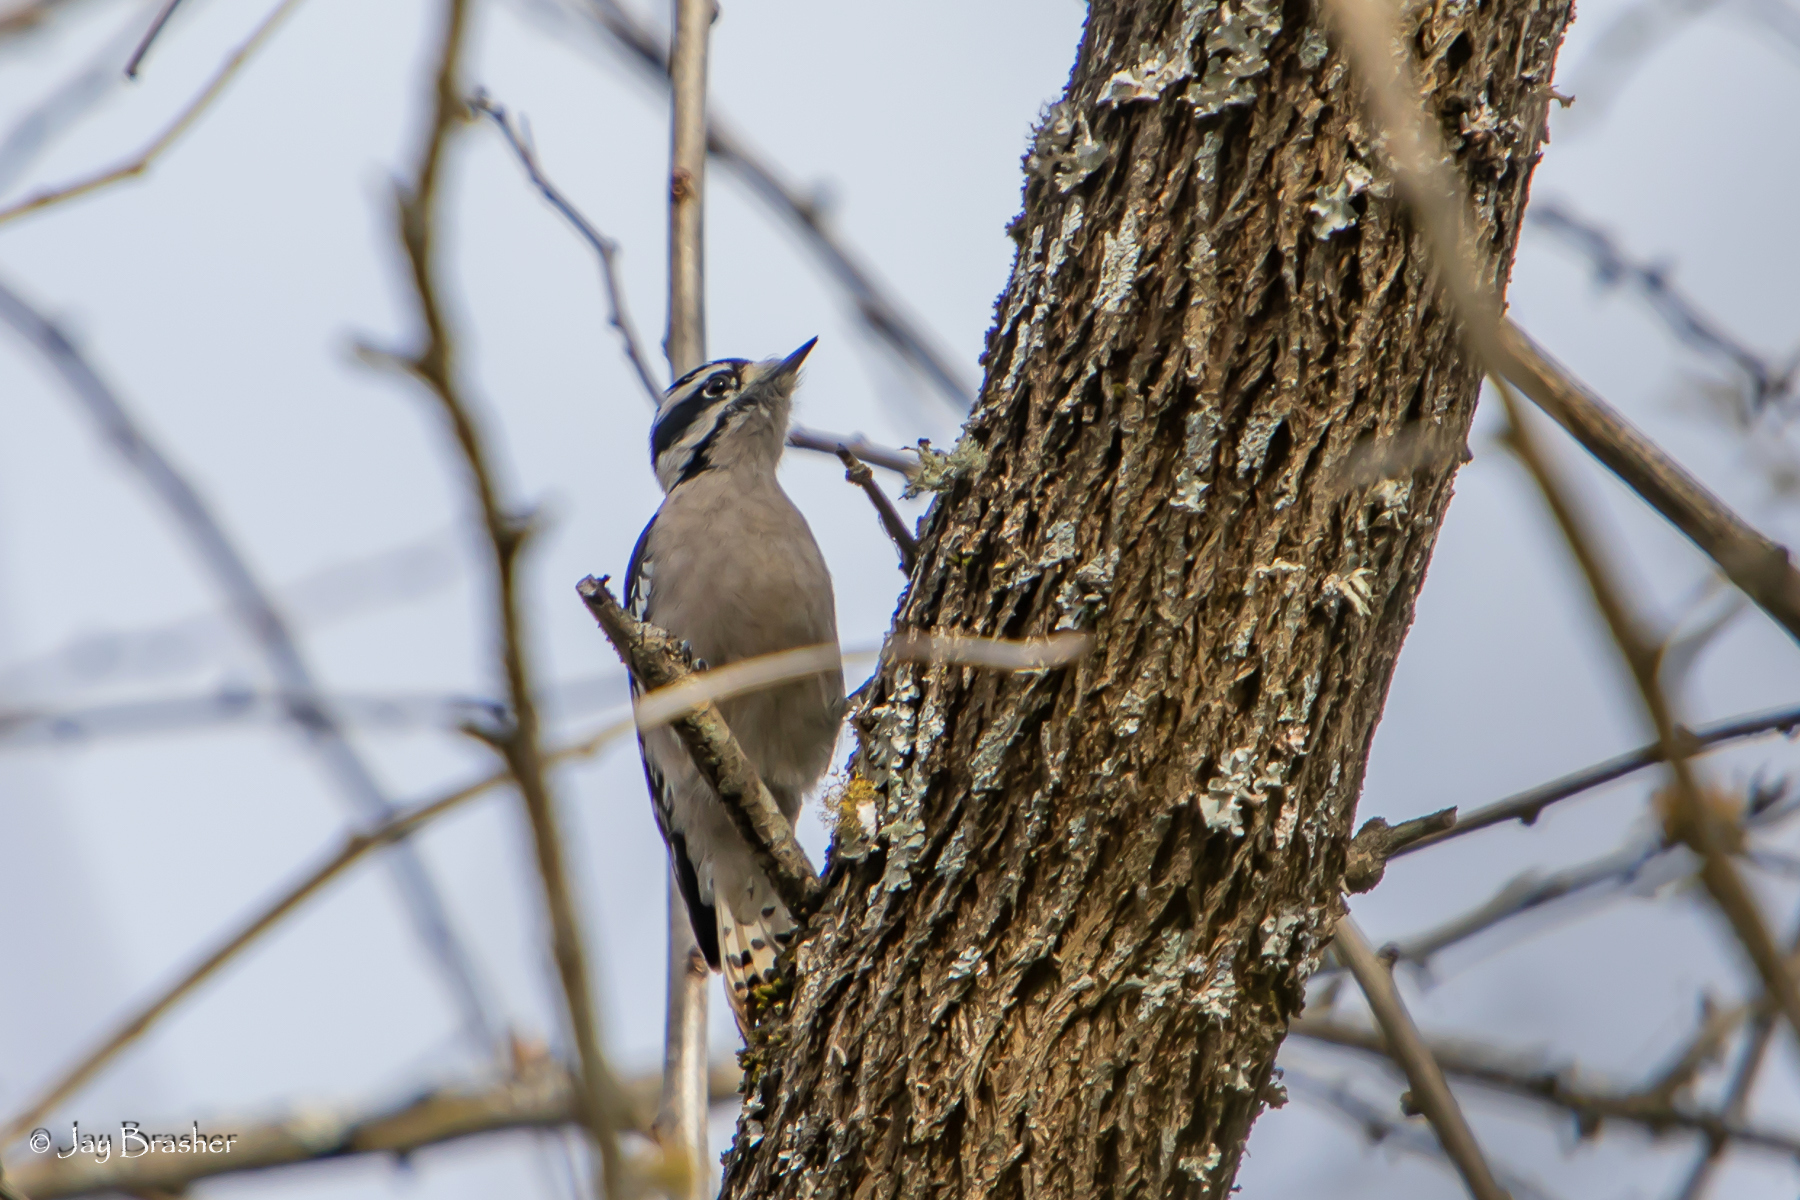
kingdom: Animalia
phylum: Chordata
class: Aves
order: Piciformes
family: Picidae
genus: Dryobates
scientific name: Dryobates pubescens
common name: Downy woodpecker
